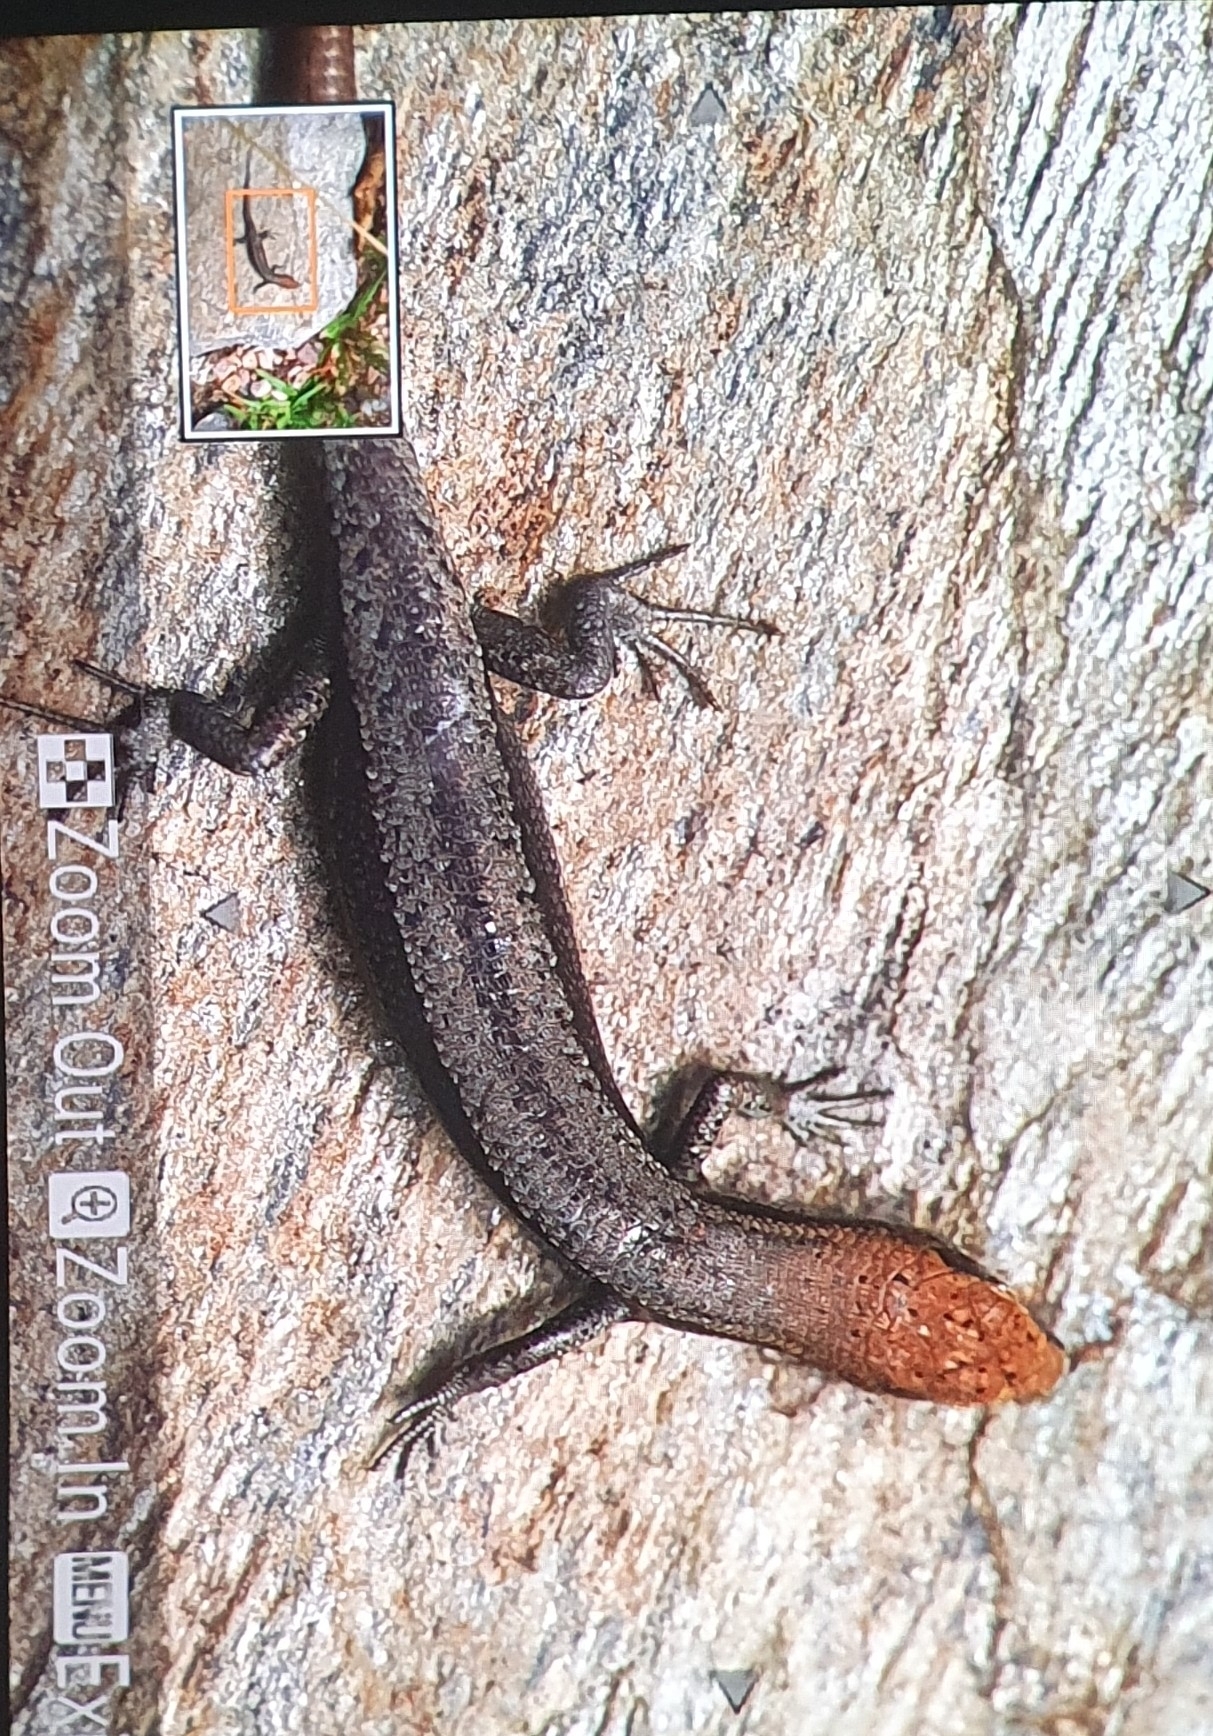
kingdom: Animalia
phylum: Chordata
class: Squamata
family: Scincidae
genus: Lampropholis
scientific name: Lampropholis guichenoti
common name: Garden skink
